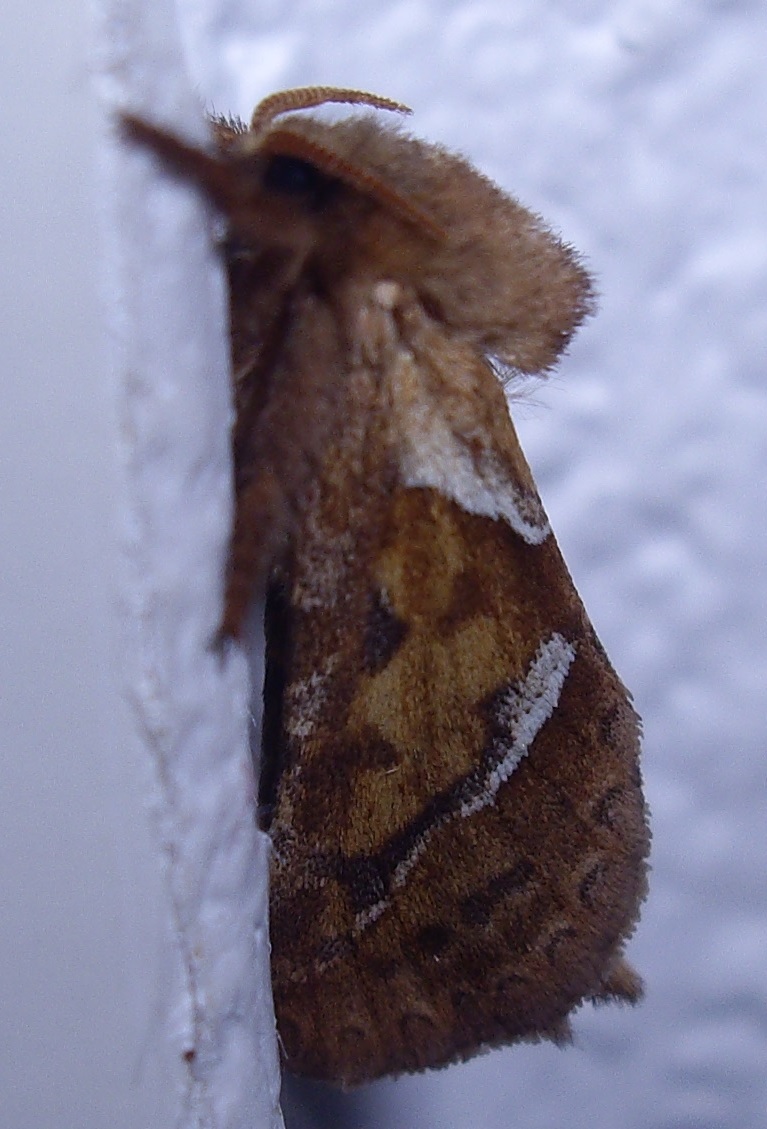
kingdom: Animalia
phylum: Arthropoda
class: Insecta
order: Lepidoptera
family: Hepialidae
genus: Triodia
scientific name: Triodia sylvina
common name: Orange swift
